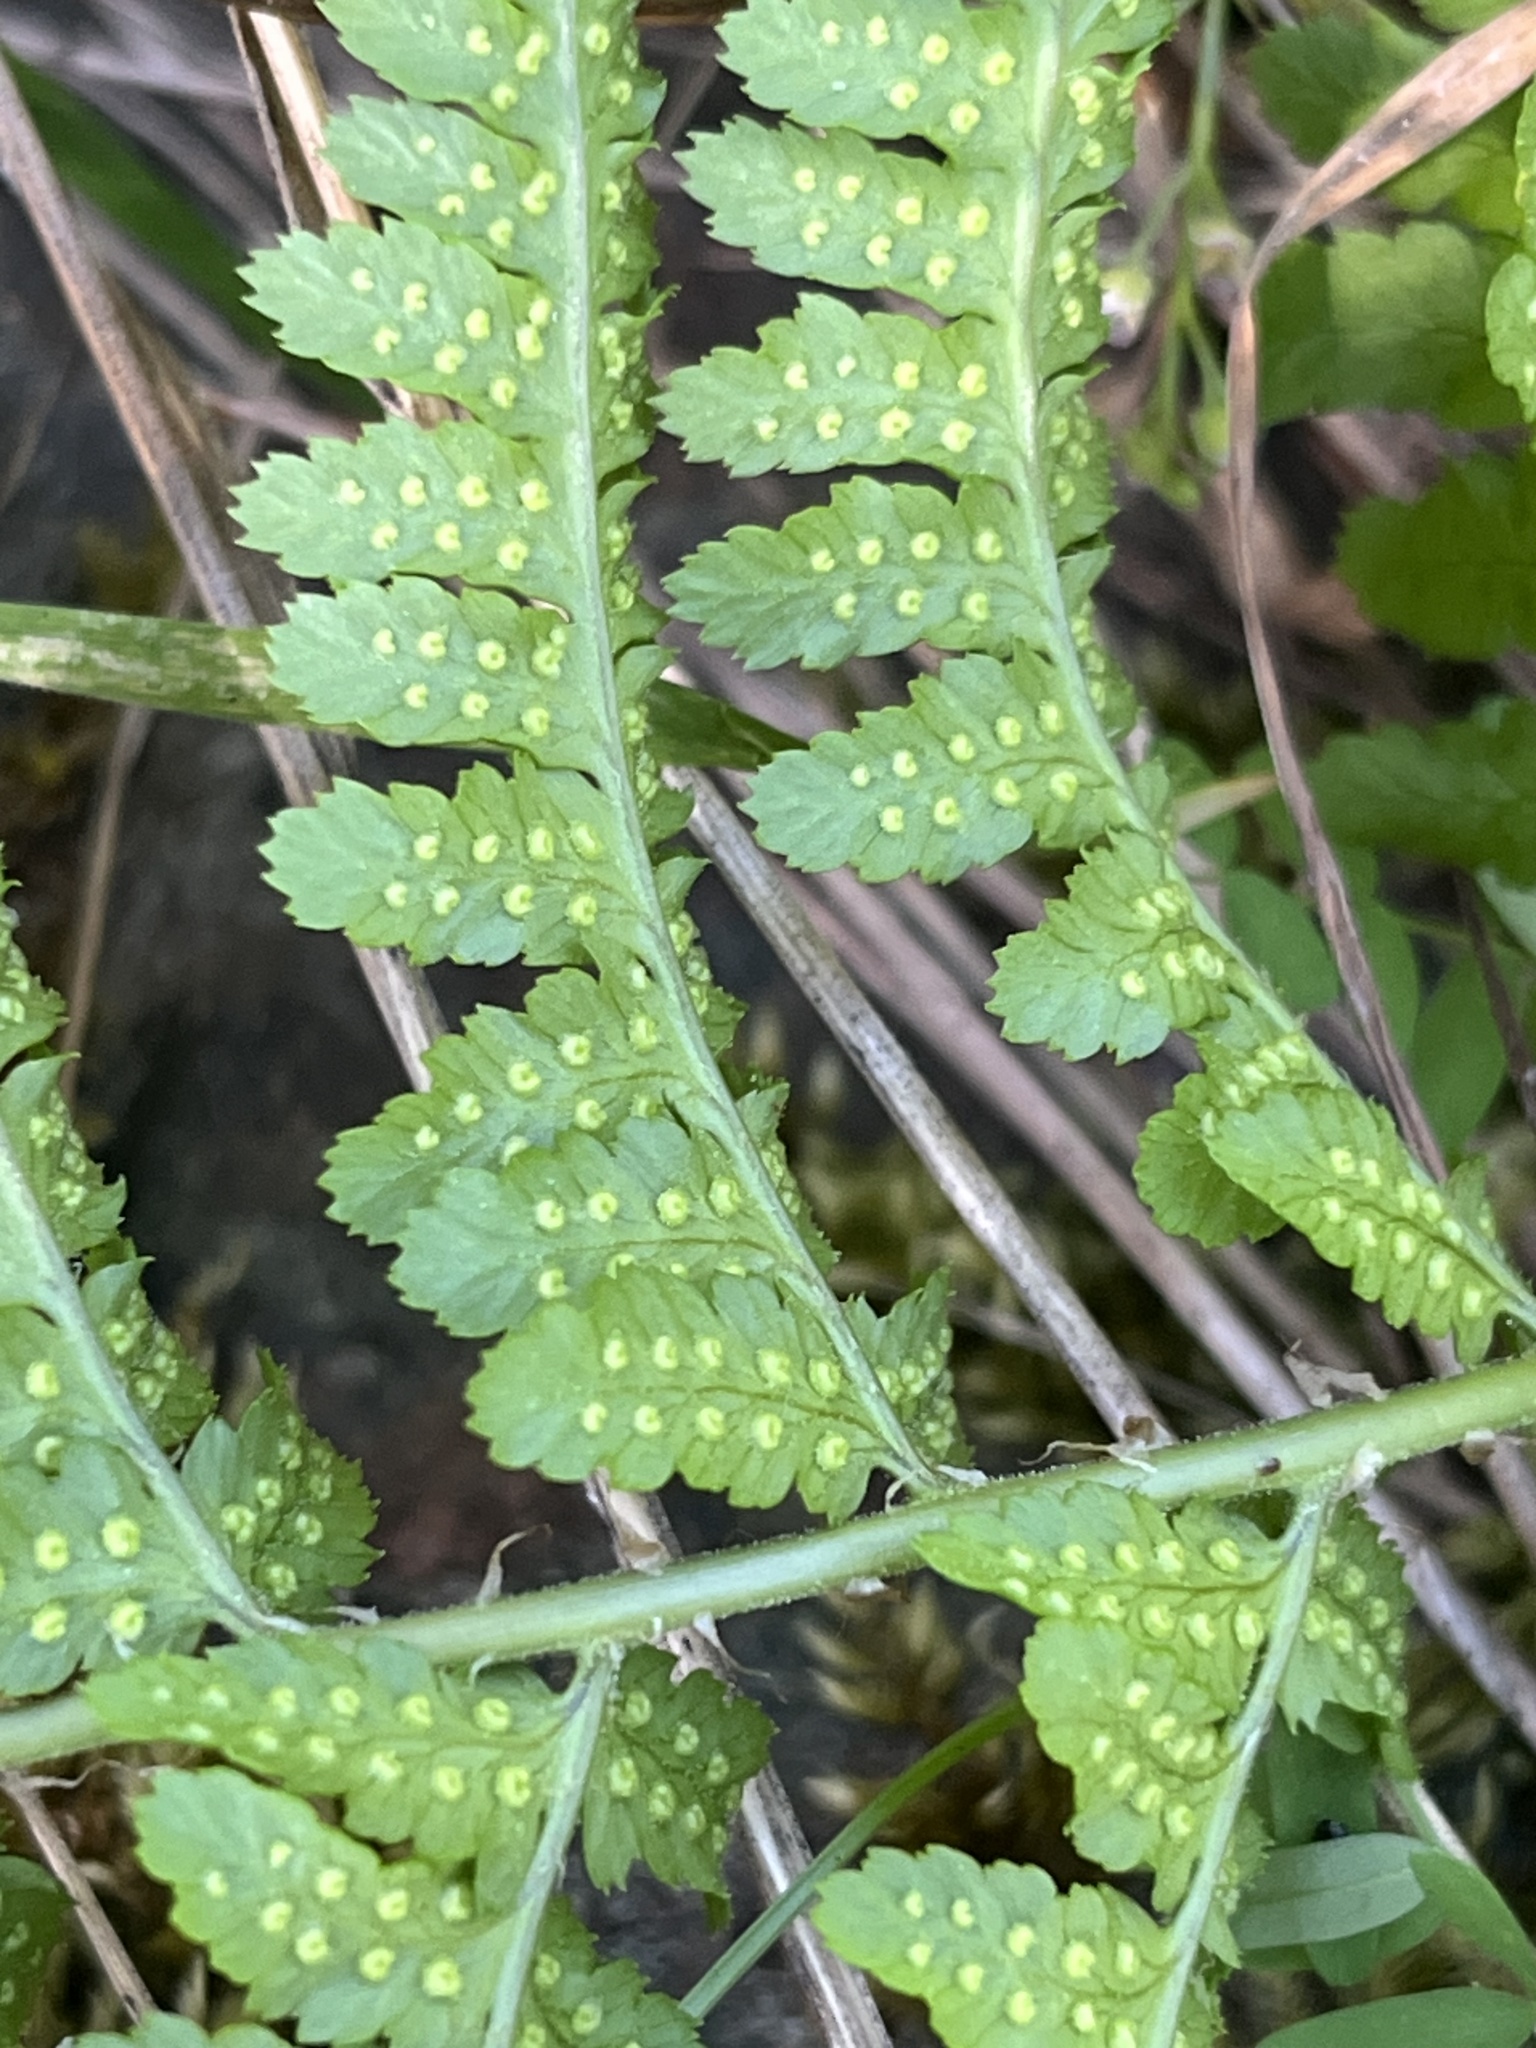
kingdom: Plantae
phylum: Tracheophyta
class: Polypodiopsida
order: Polypodiales
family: Dryopteridaceae
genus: Dryopteris
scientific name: Dryopteris arguta
